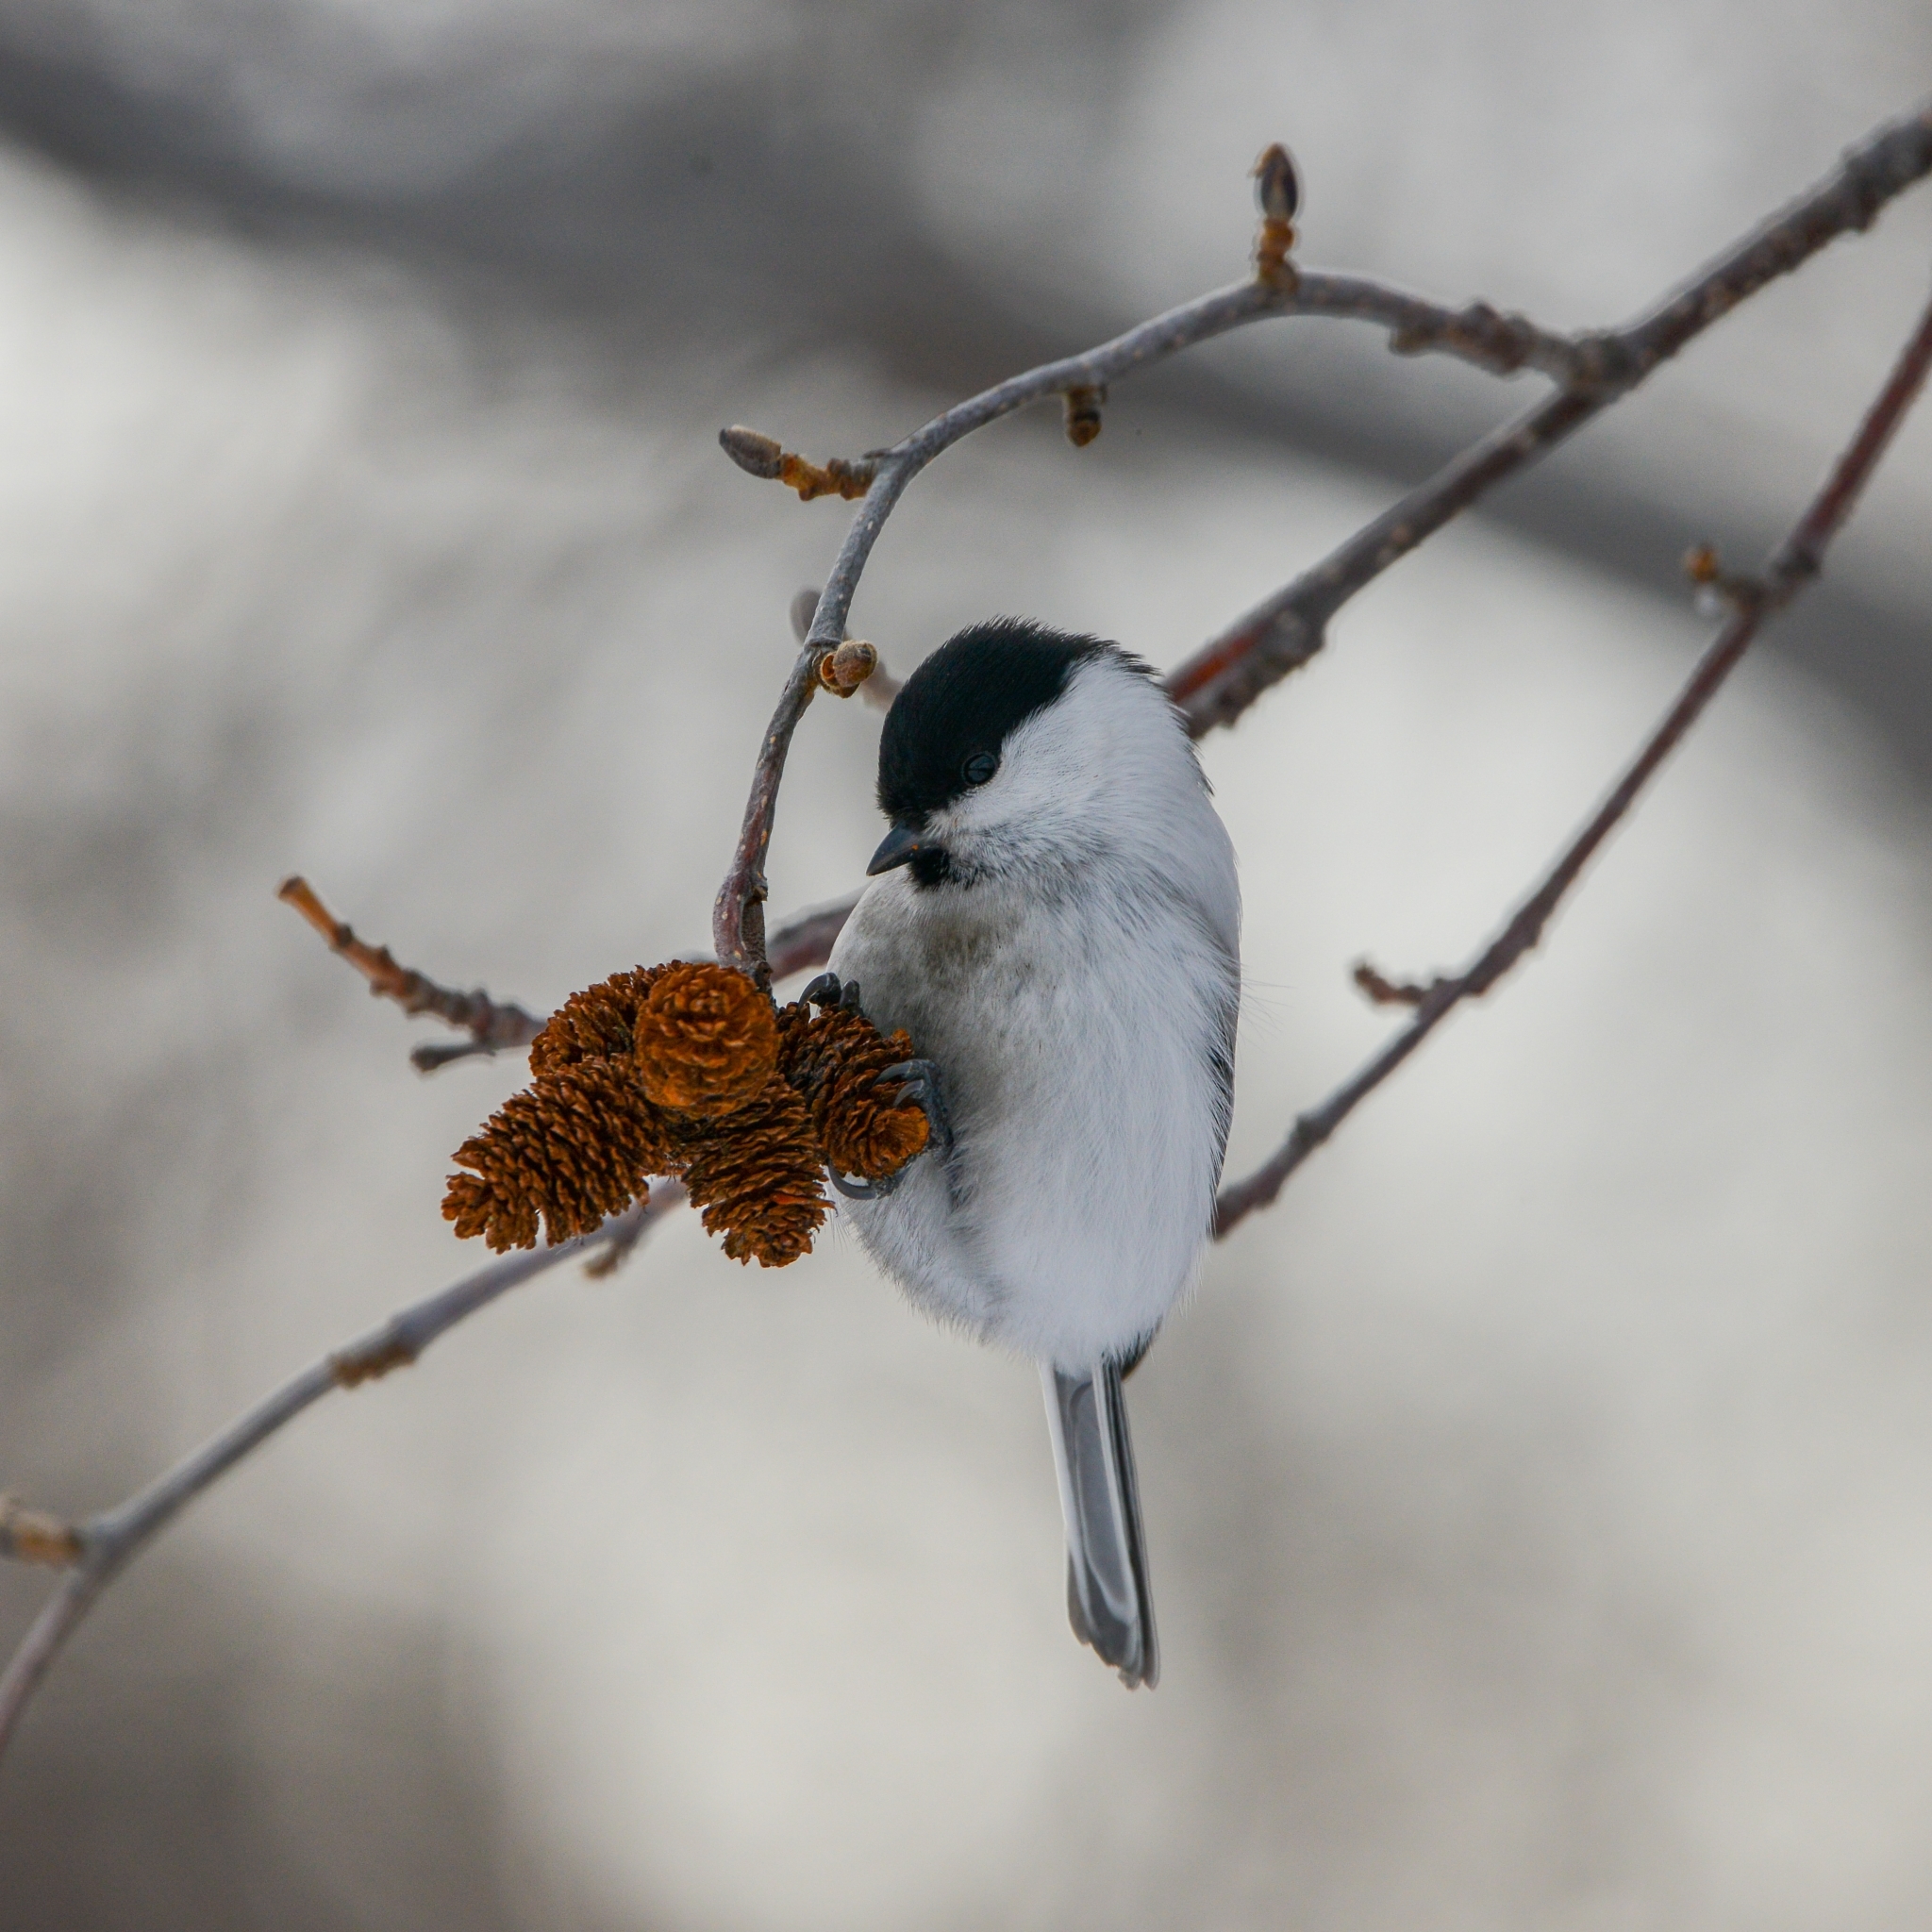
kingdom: Animalia
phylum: Chordata
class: Aves
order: Passeriformes
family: Paridae
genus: Poecile
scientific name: Poecile montanus
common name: Willow tit
